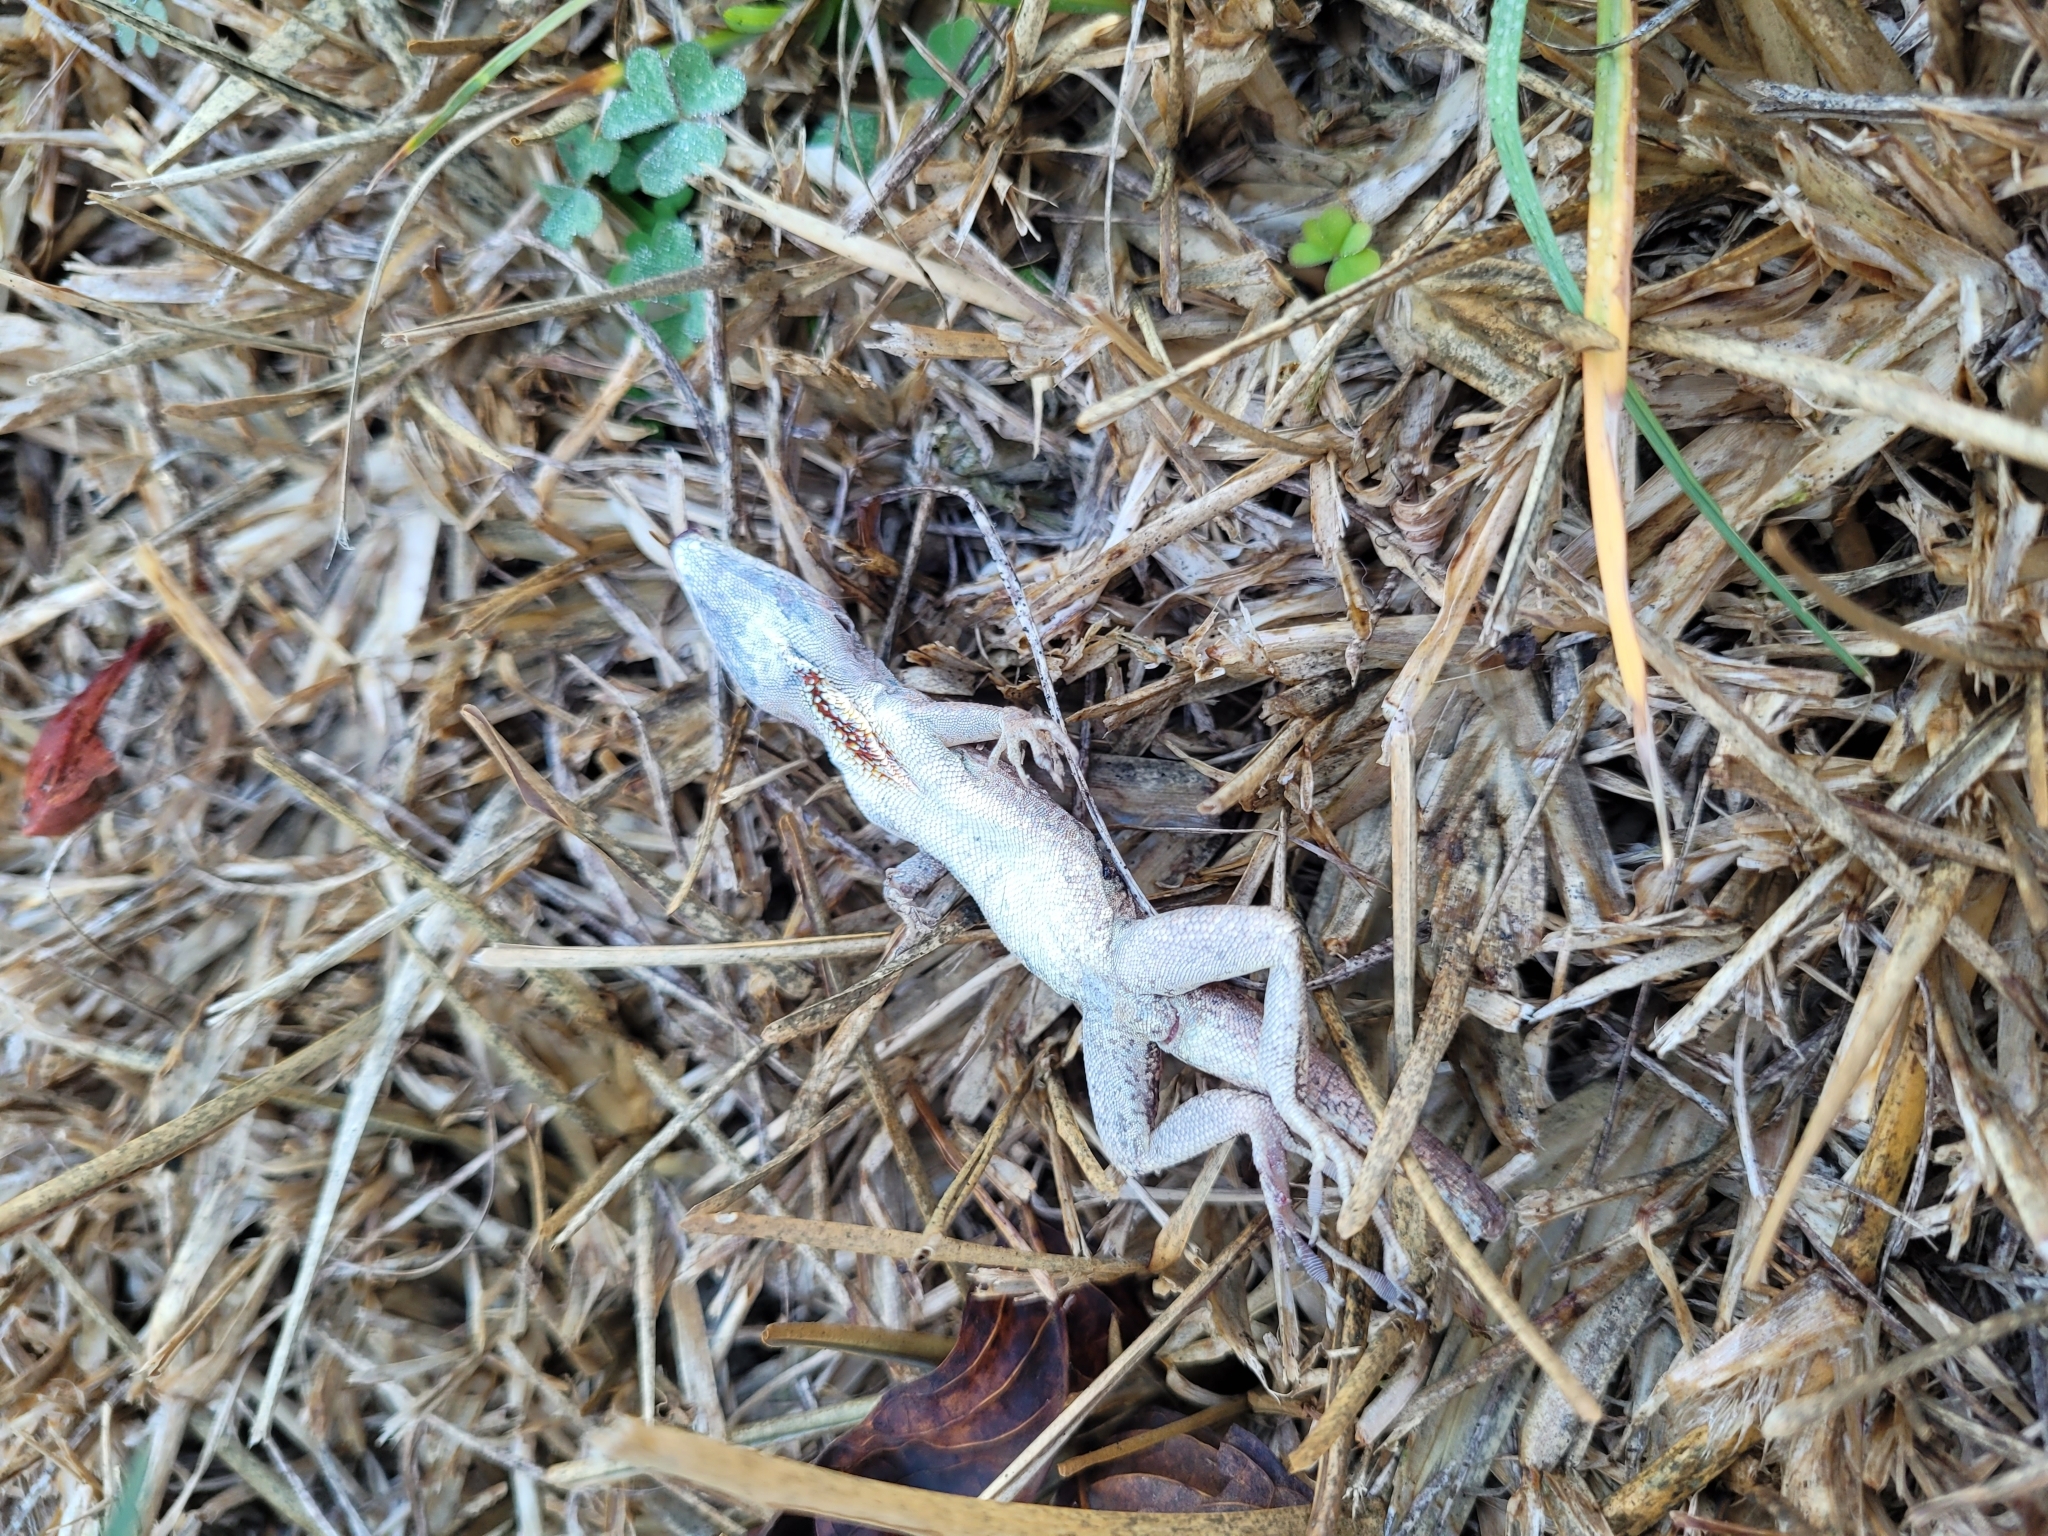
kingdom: Animalia
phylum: Chordata
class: Squamata
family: Dactyloidae
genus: Anolis
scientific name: Anolis sagrei
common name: Brown anole
